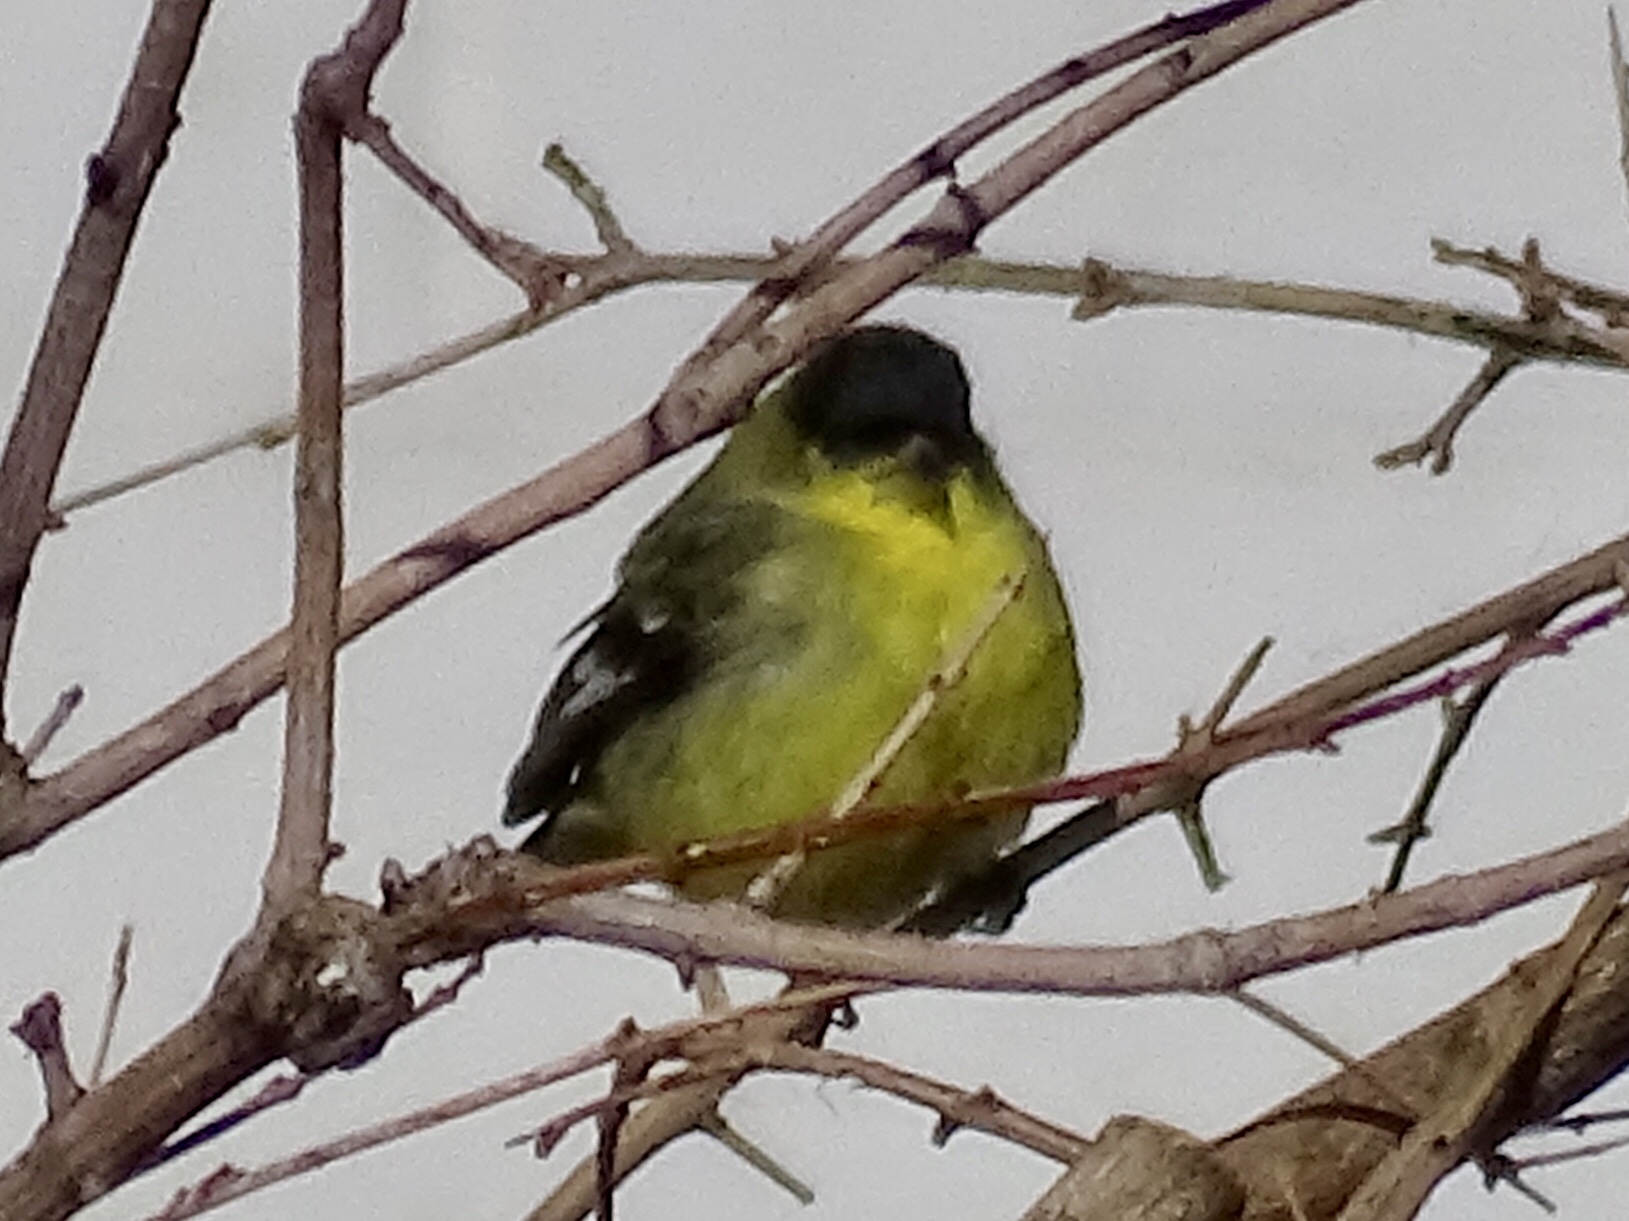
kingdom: Animalia
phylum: Chordata
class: Aves
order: Passeriformes
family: Fringillidae
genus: Spinus
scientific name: Spinus psaltria
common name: Lesser goldfinch
